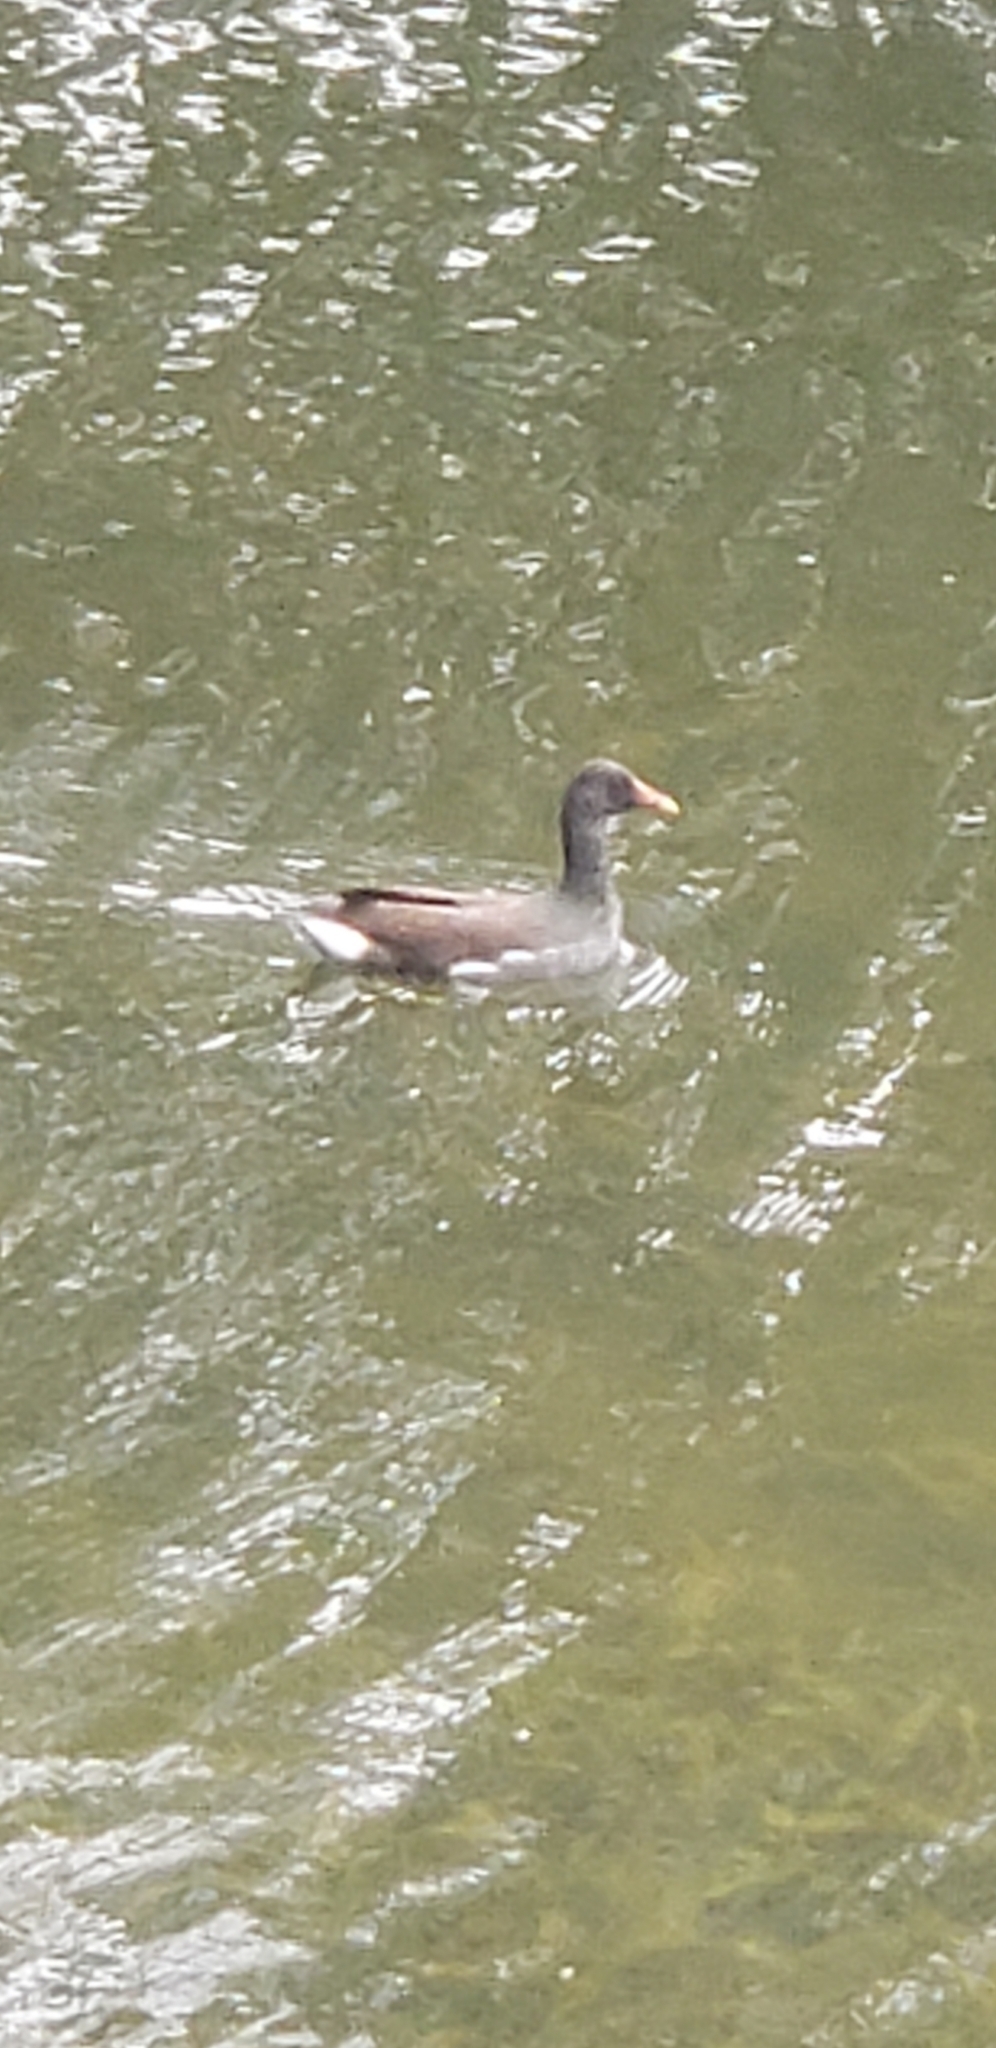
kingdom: Animalia
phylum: Chordata
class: Aves
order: Gruiformes
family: Rallidae
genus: Gallinula
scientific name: Gallinula chloropus
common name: Common moorhen
